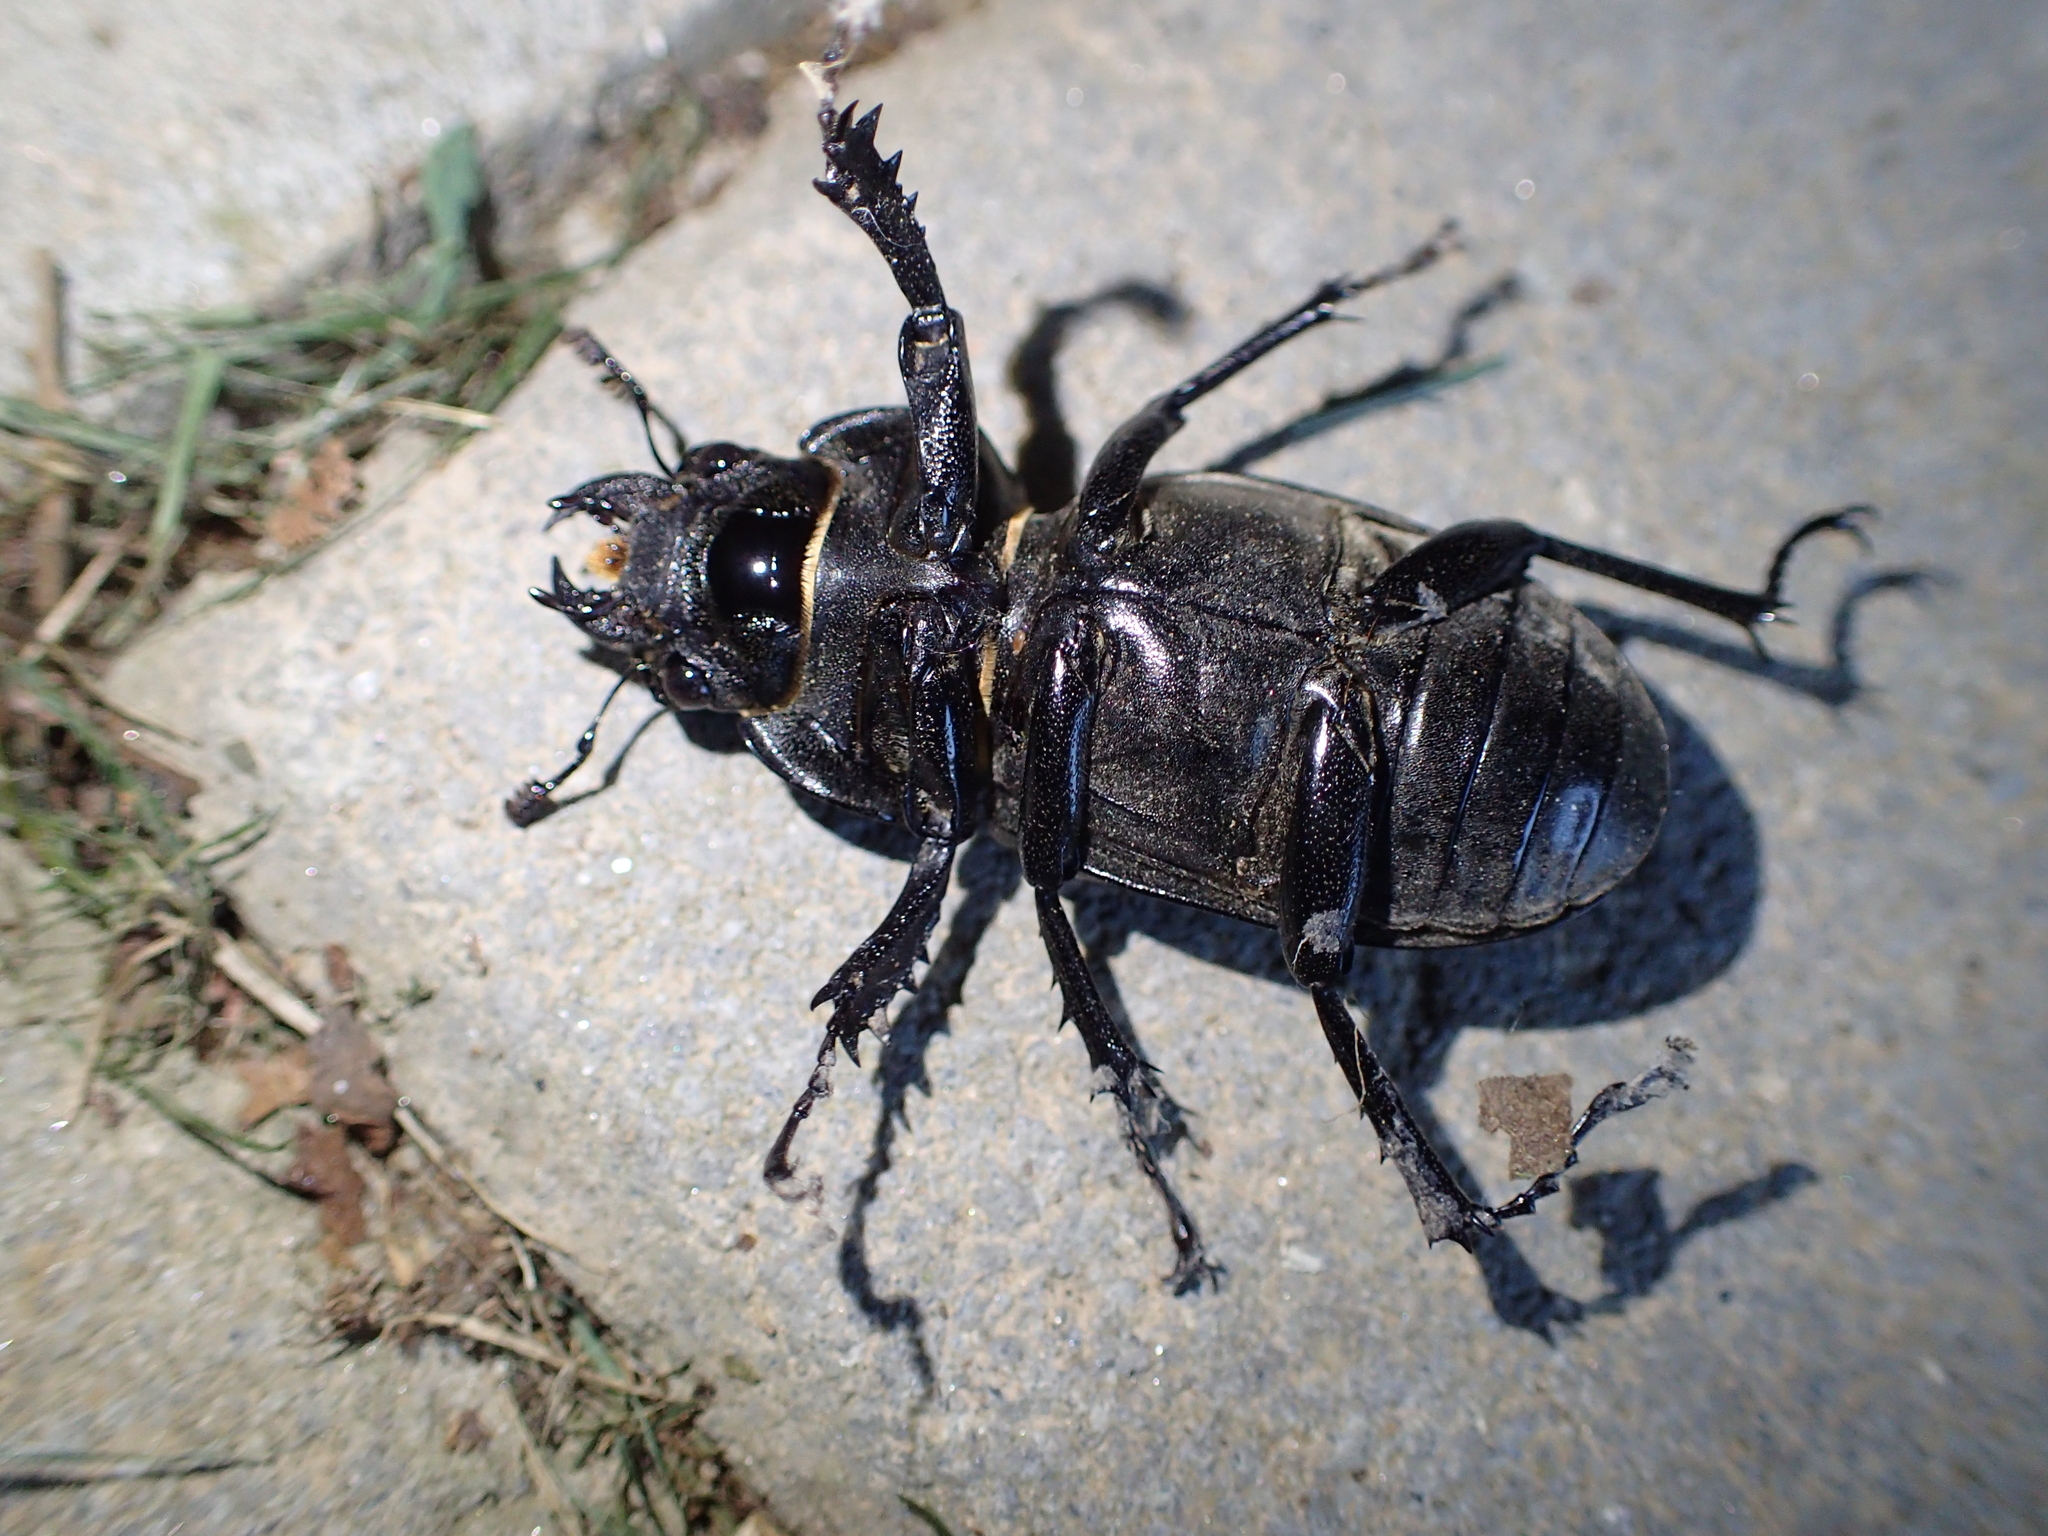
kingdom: Animalia
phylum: Arthropoda
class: Insecta
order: Coleoptera
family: Lucanidae
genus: Lucanus
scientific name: Lucanus cervus
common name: Stag beetle
